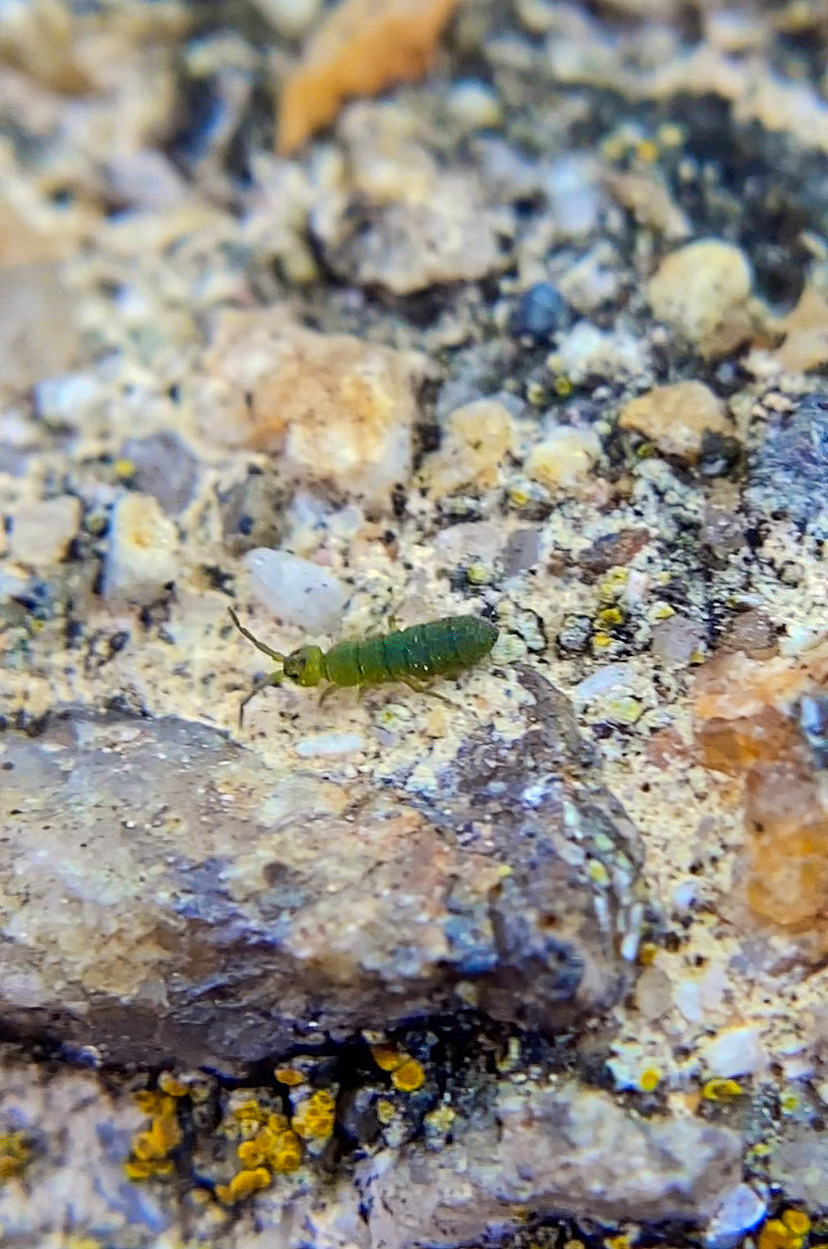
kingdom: Animalia
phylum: Arthropoda
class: Collembola
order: Entomobryomorpha
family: Isotomidae
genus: Isotoma
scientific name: Isotoma viridis
